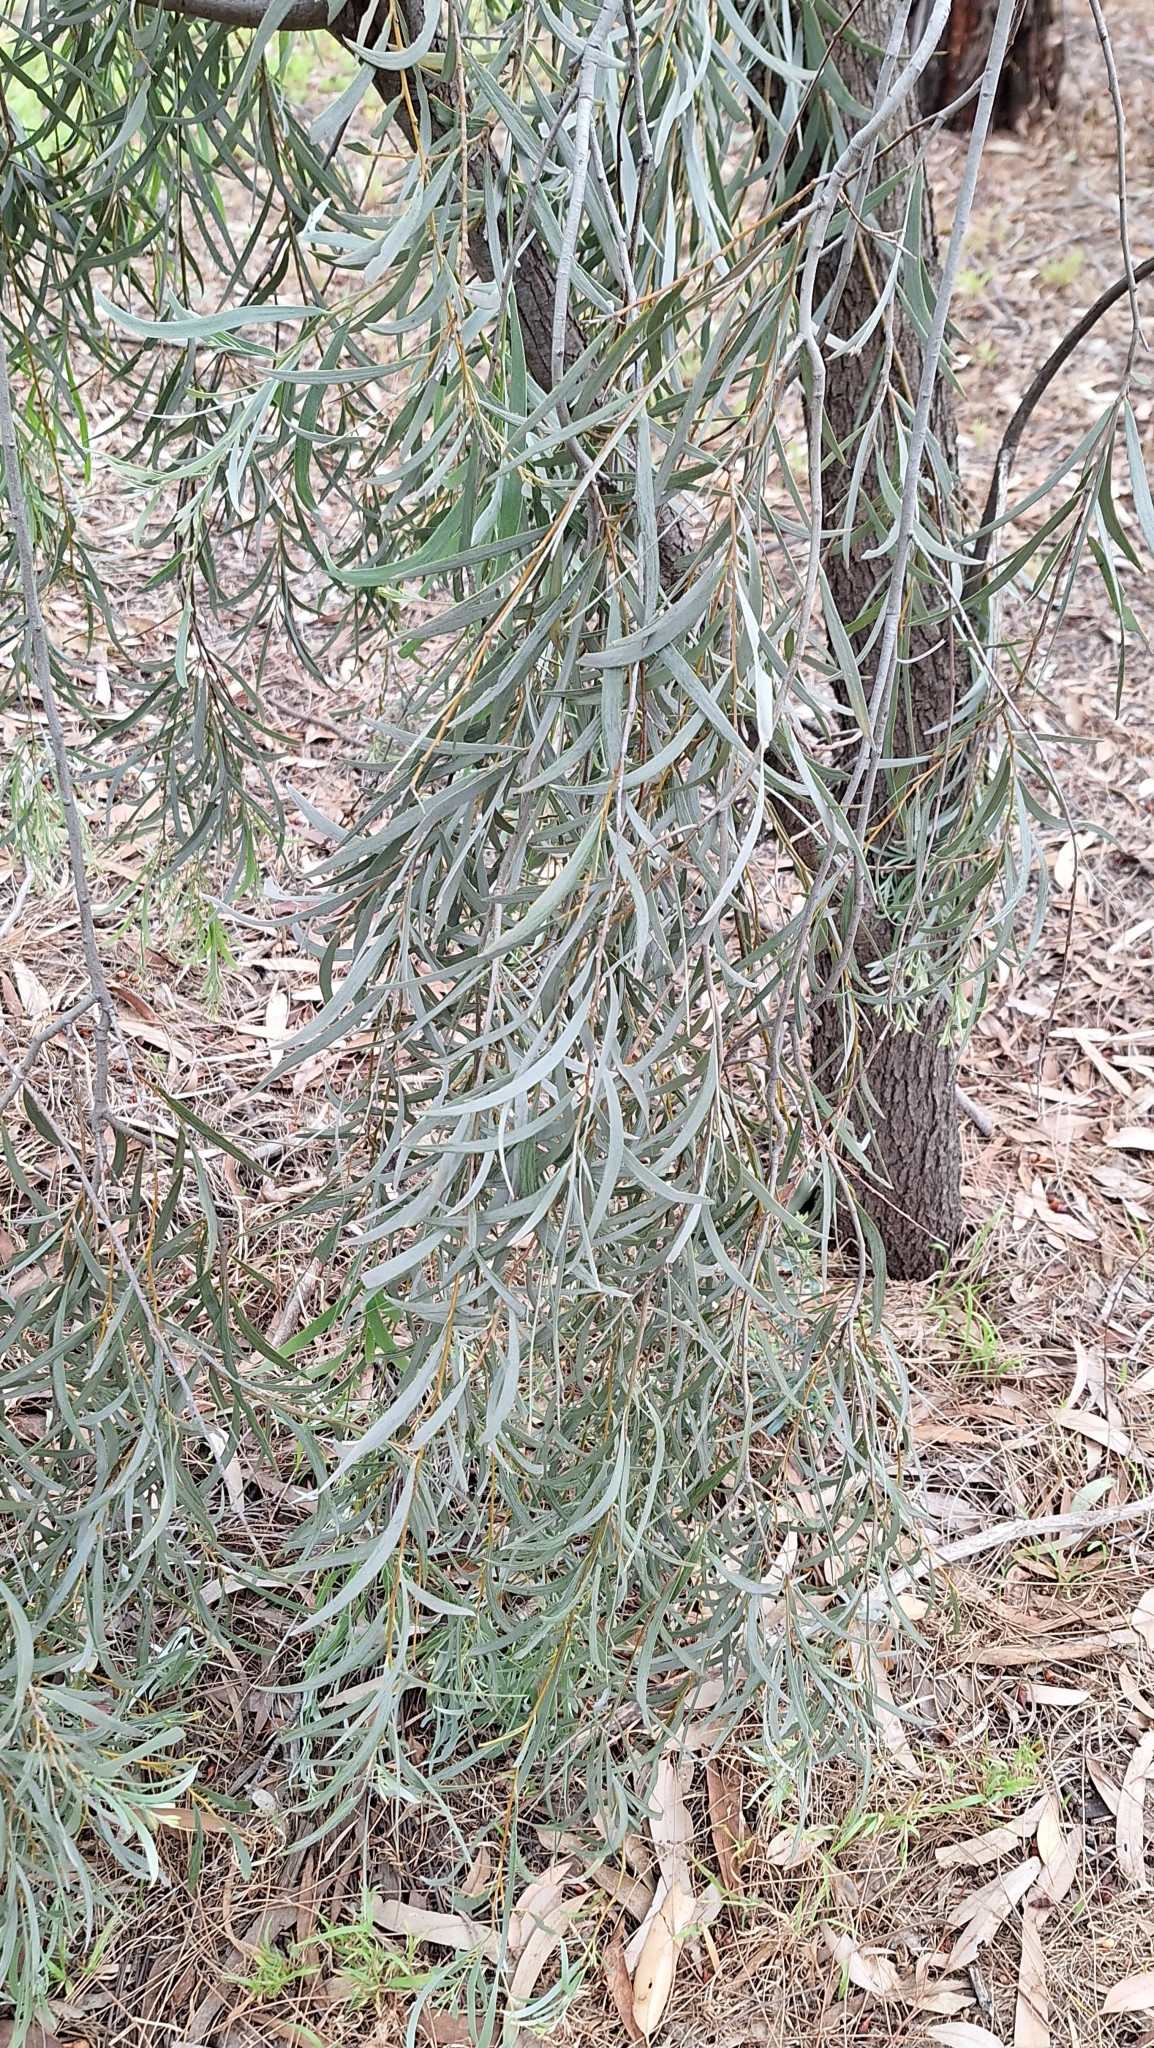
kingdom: Plantae
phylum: Tracheophyta
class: Magnoliopsida
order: Fabales
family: Fabaceae
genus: Acacia
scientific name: Acacia pendula
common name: Weeping myall
